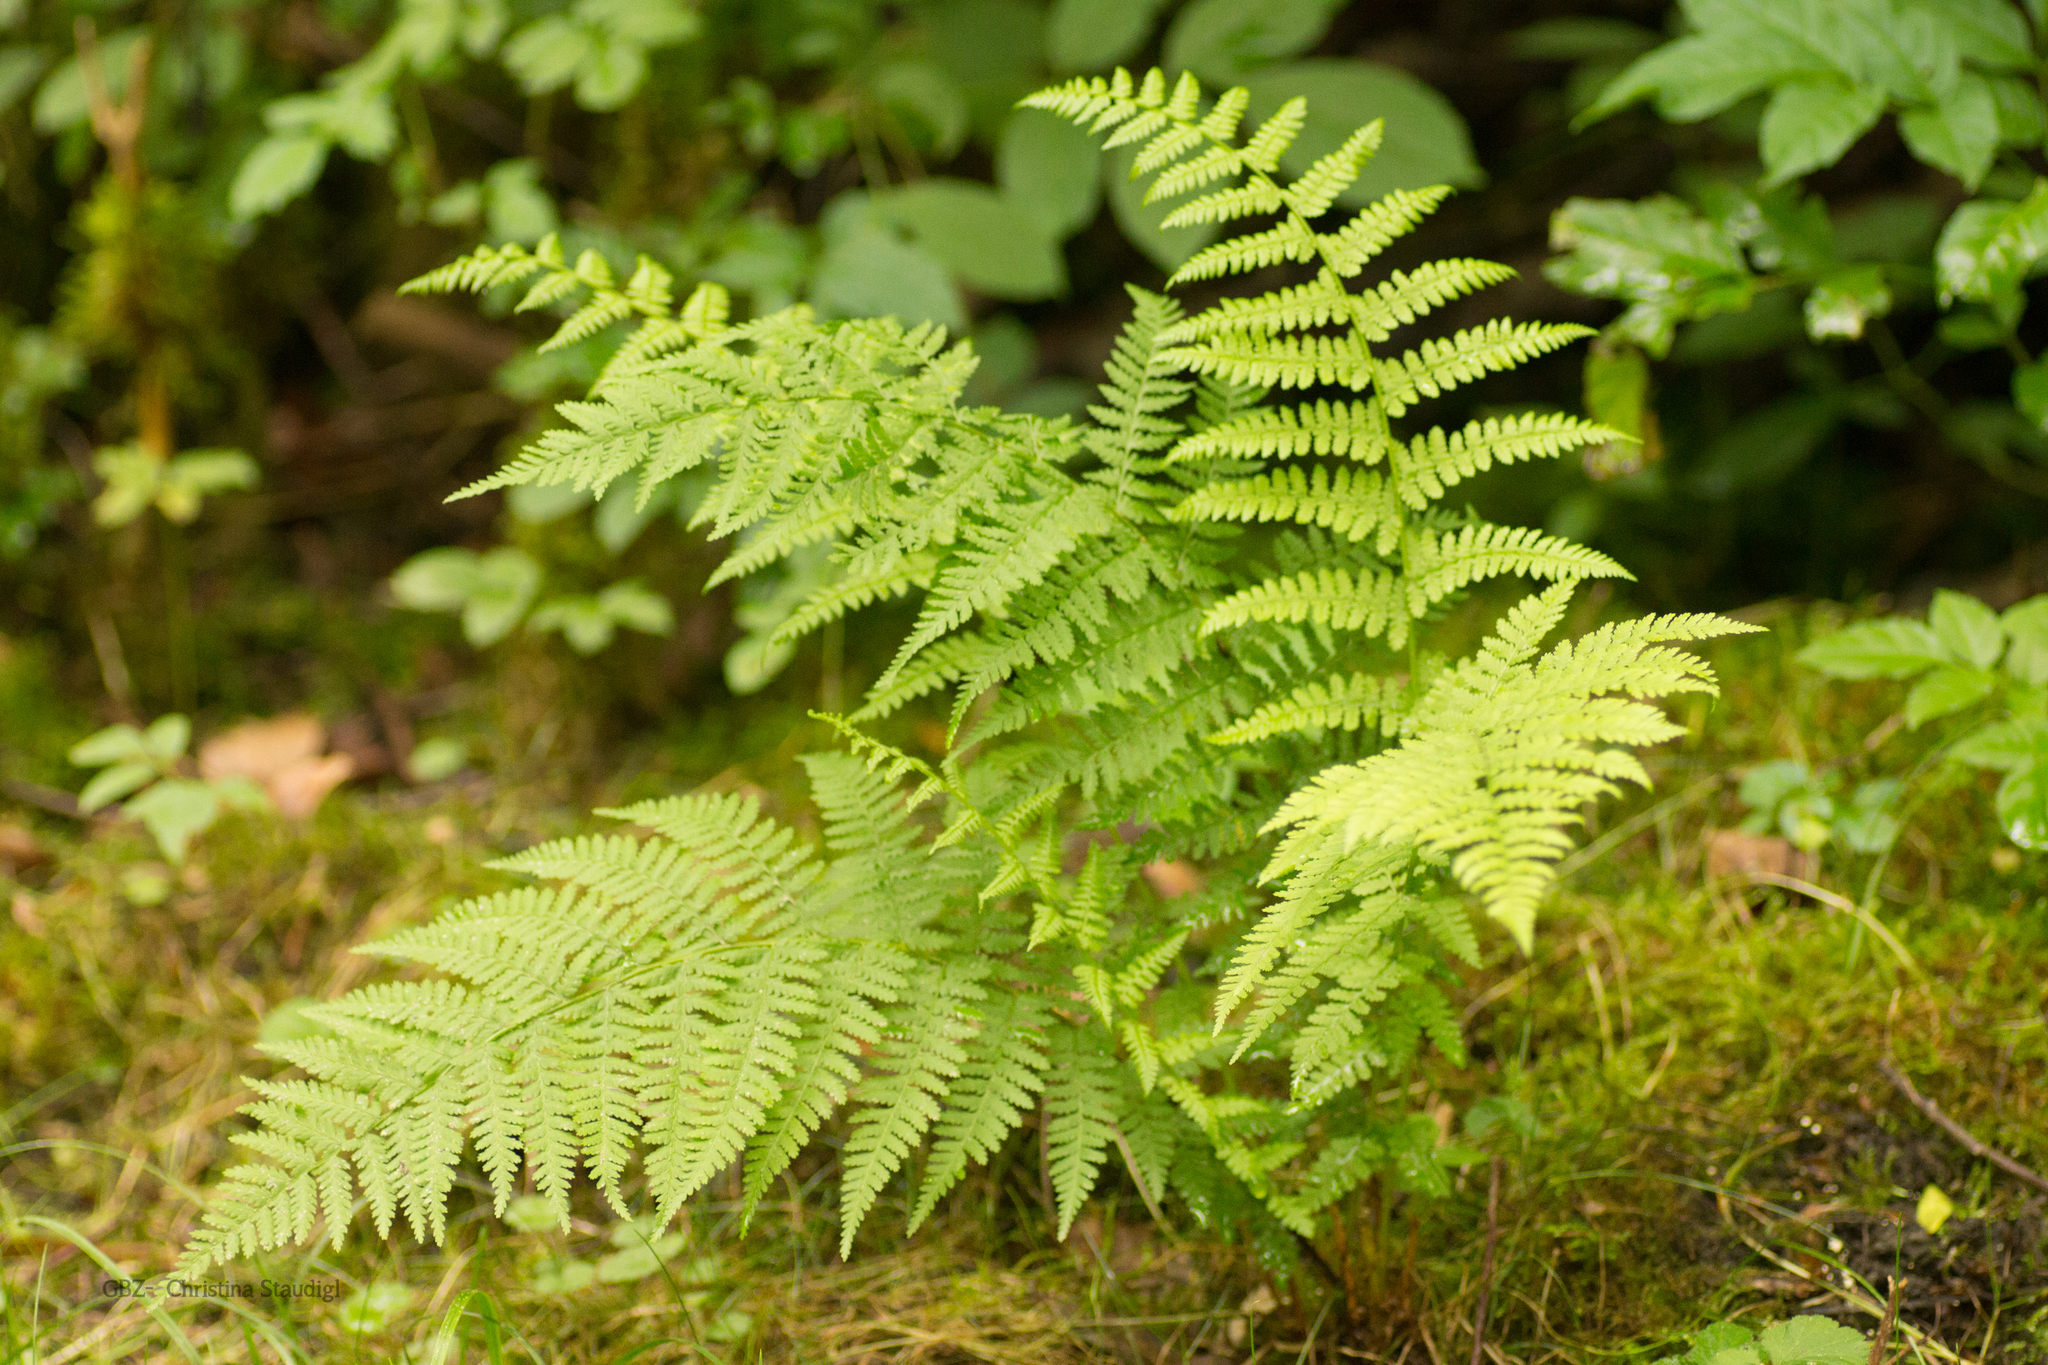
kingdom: Plantae
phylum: Tracheophyta
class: Polypodiopsida
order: Polypodiales
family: Athyriaceae
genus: Athyrium
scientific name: Athyrium filix-femina
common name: Lady fern
